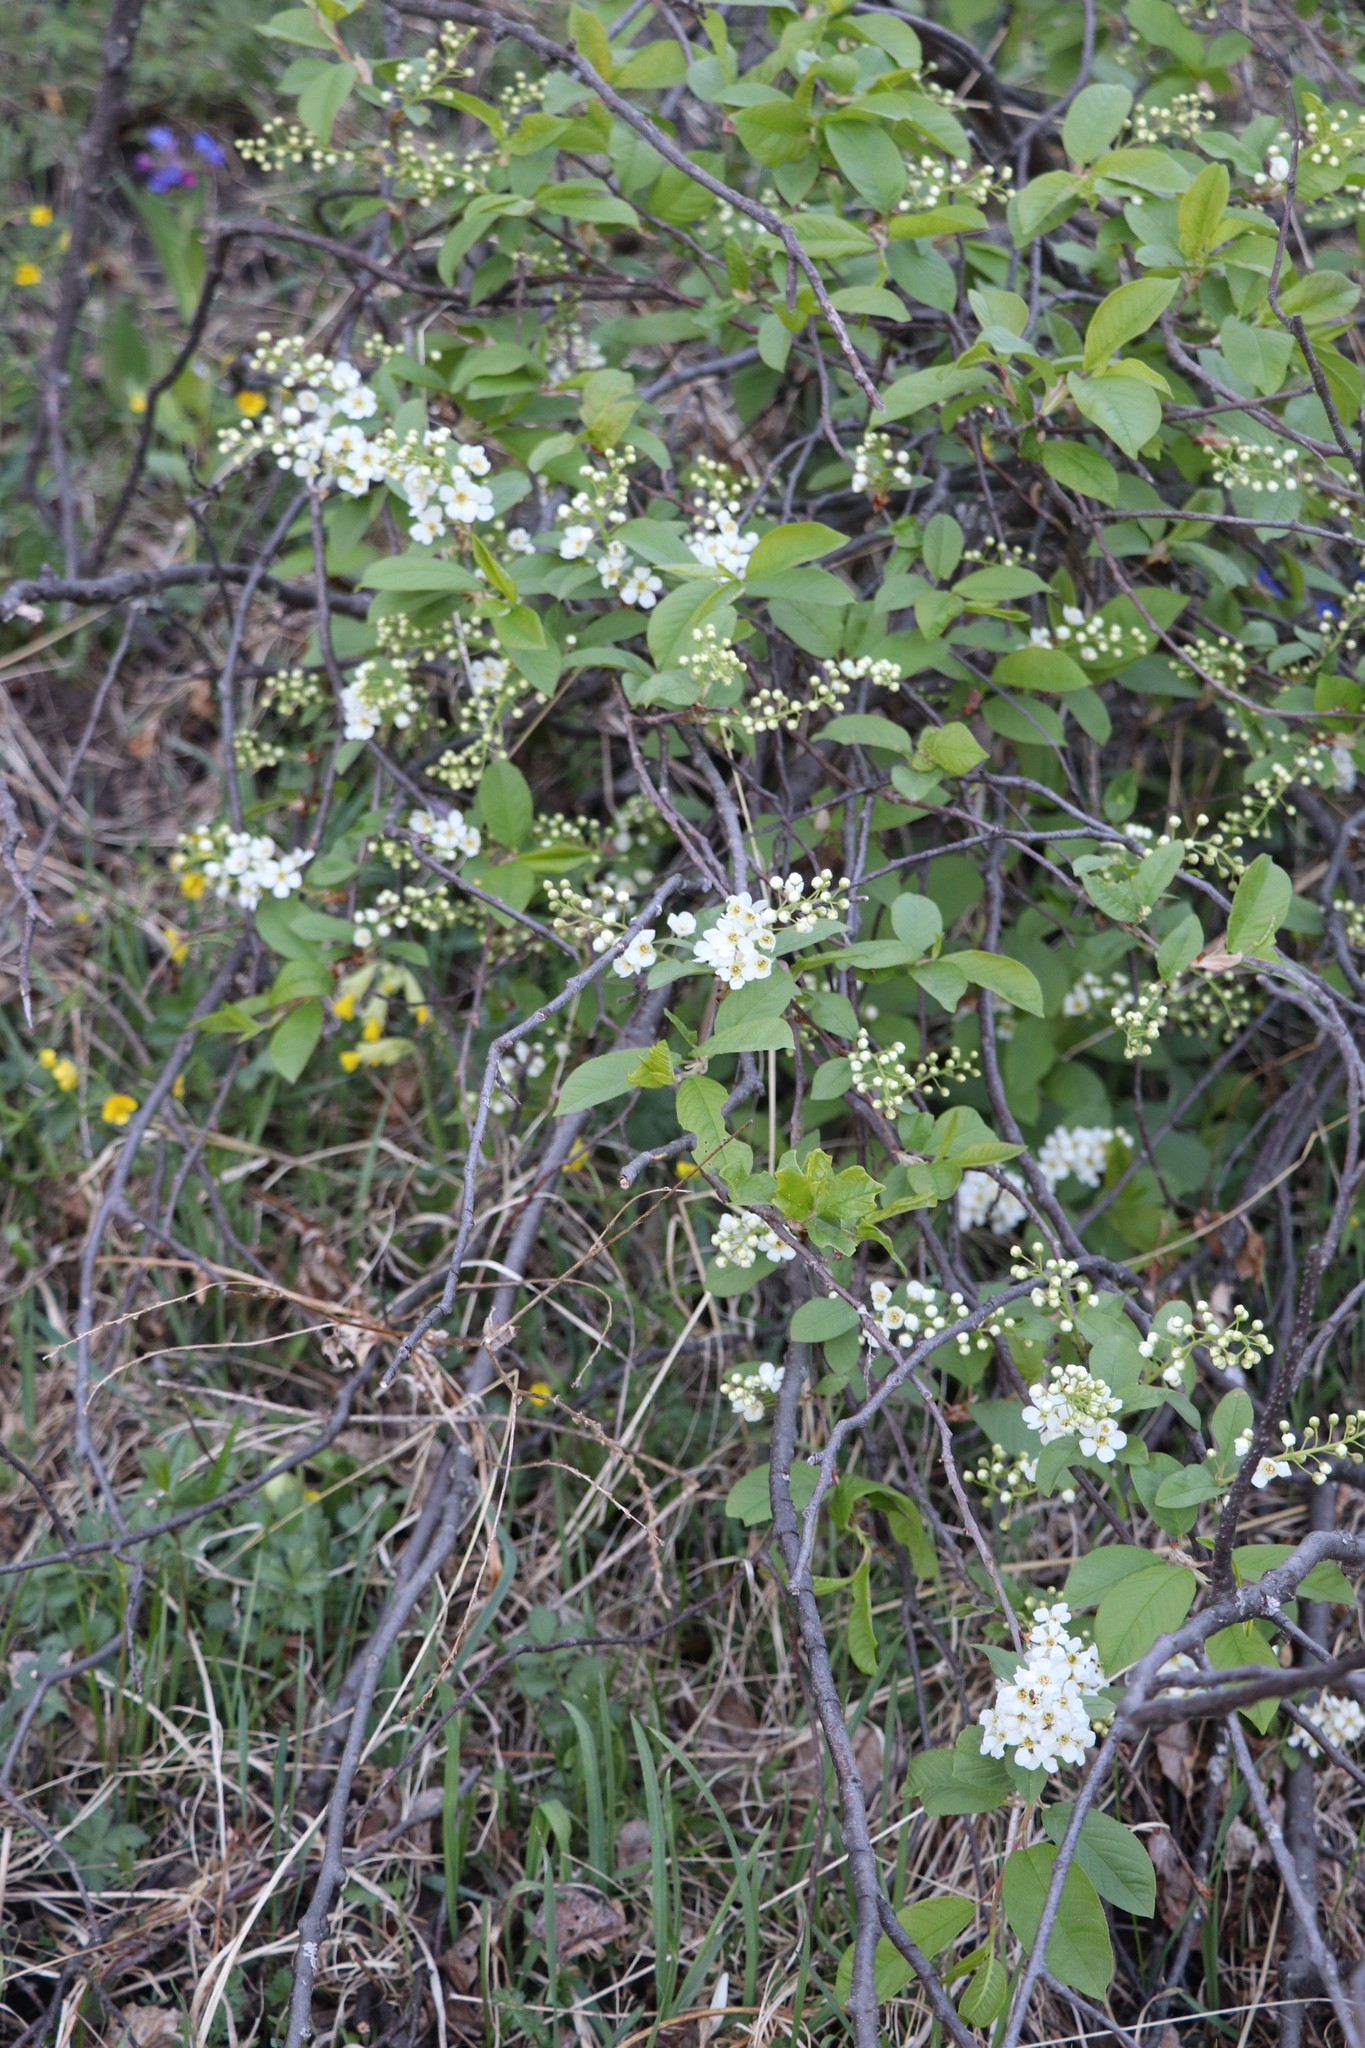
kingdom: Plantae
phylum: Tracheophyta
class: Magnoliopsida
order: Rosales
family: Rosaceae
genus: Prunus
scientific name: Prunus padus
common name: Bird cherry
